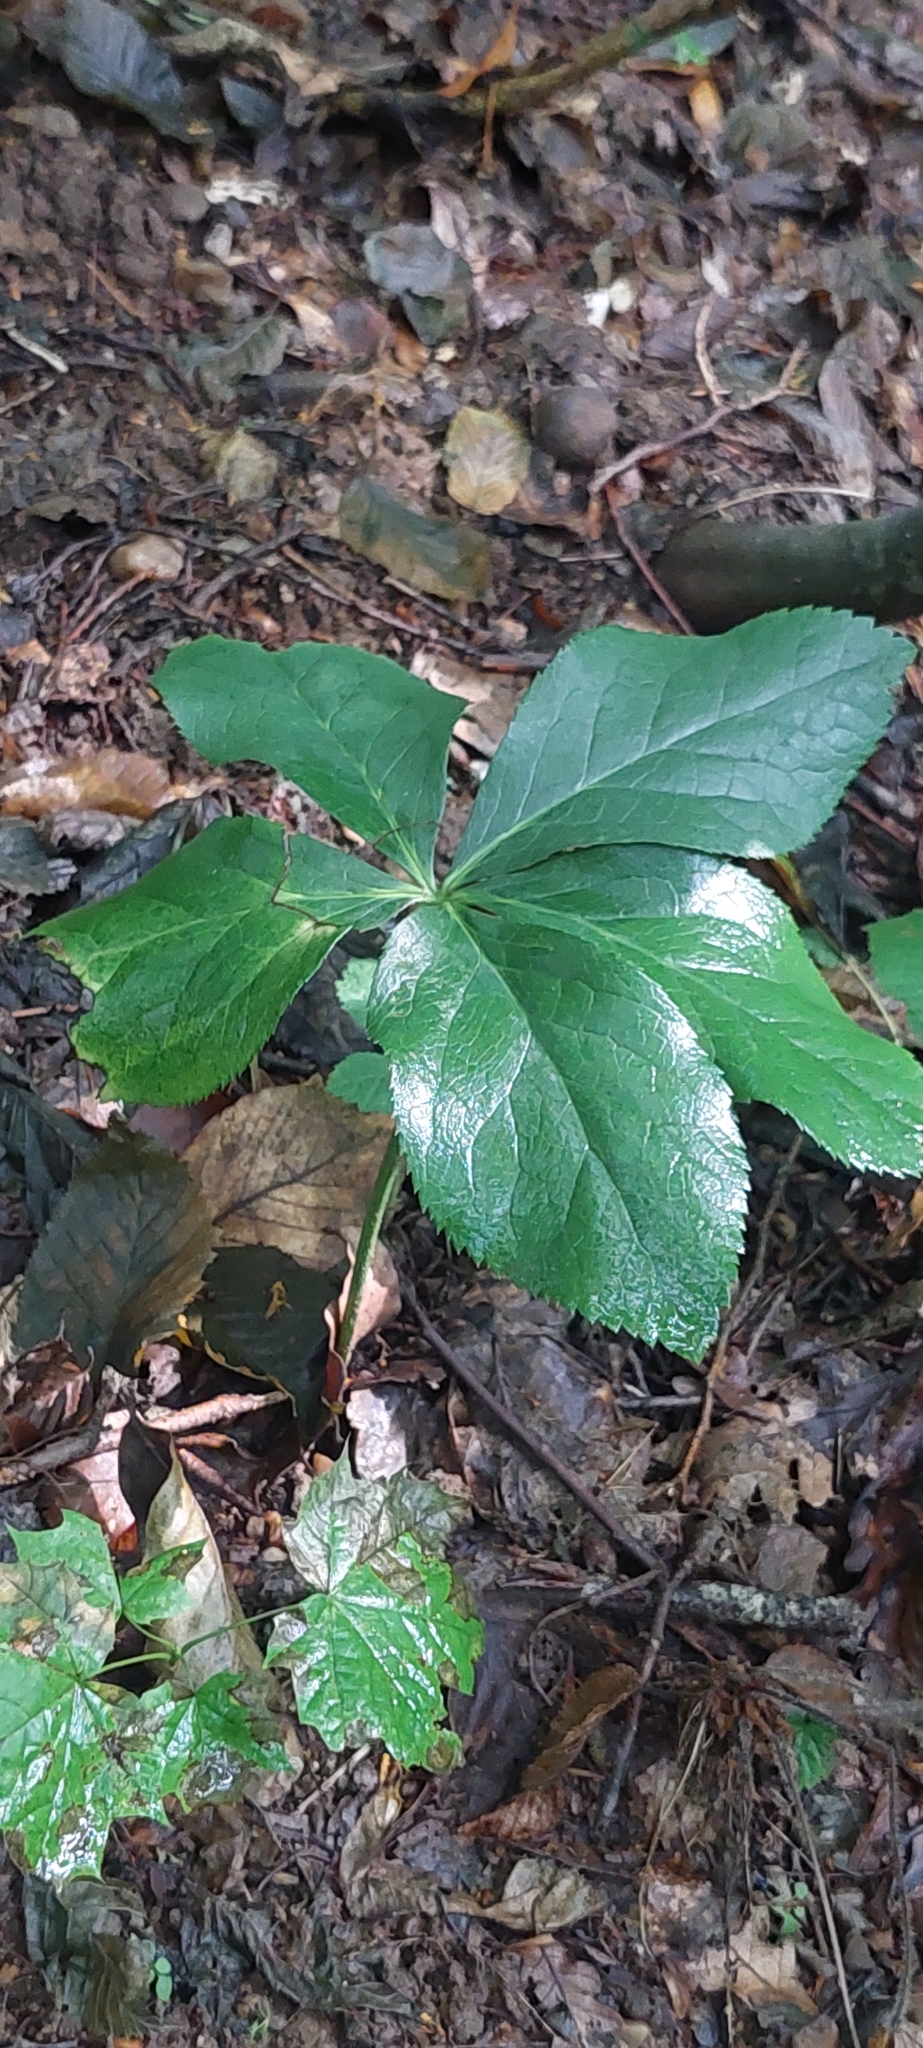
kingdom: Plantae
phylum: Tracheophyta
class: Magnoliopsida
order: Ranunculales
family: Ranunculaceae
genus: Helleborus
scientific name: Helleborus orientalis
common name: Lenten-rose
